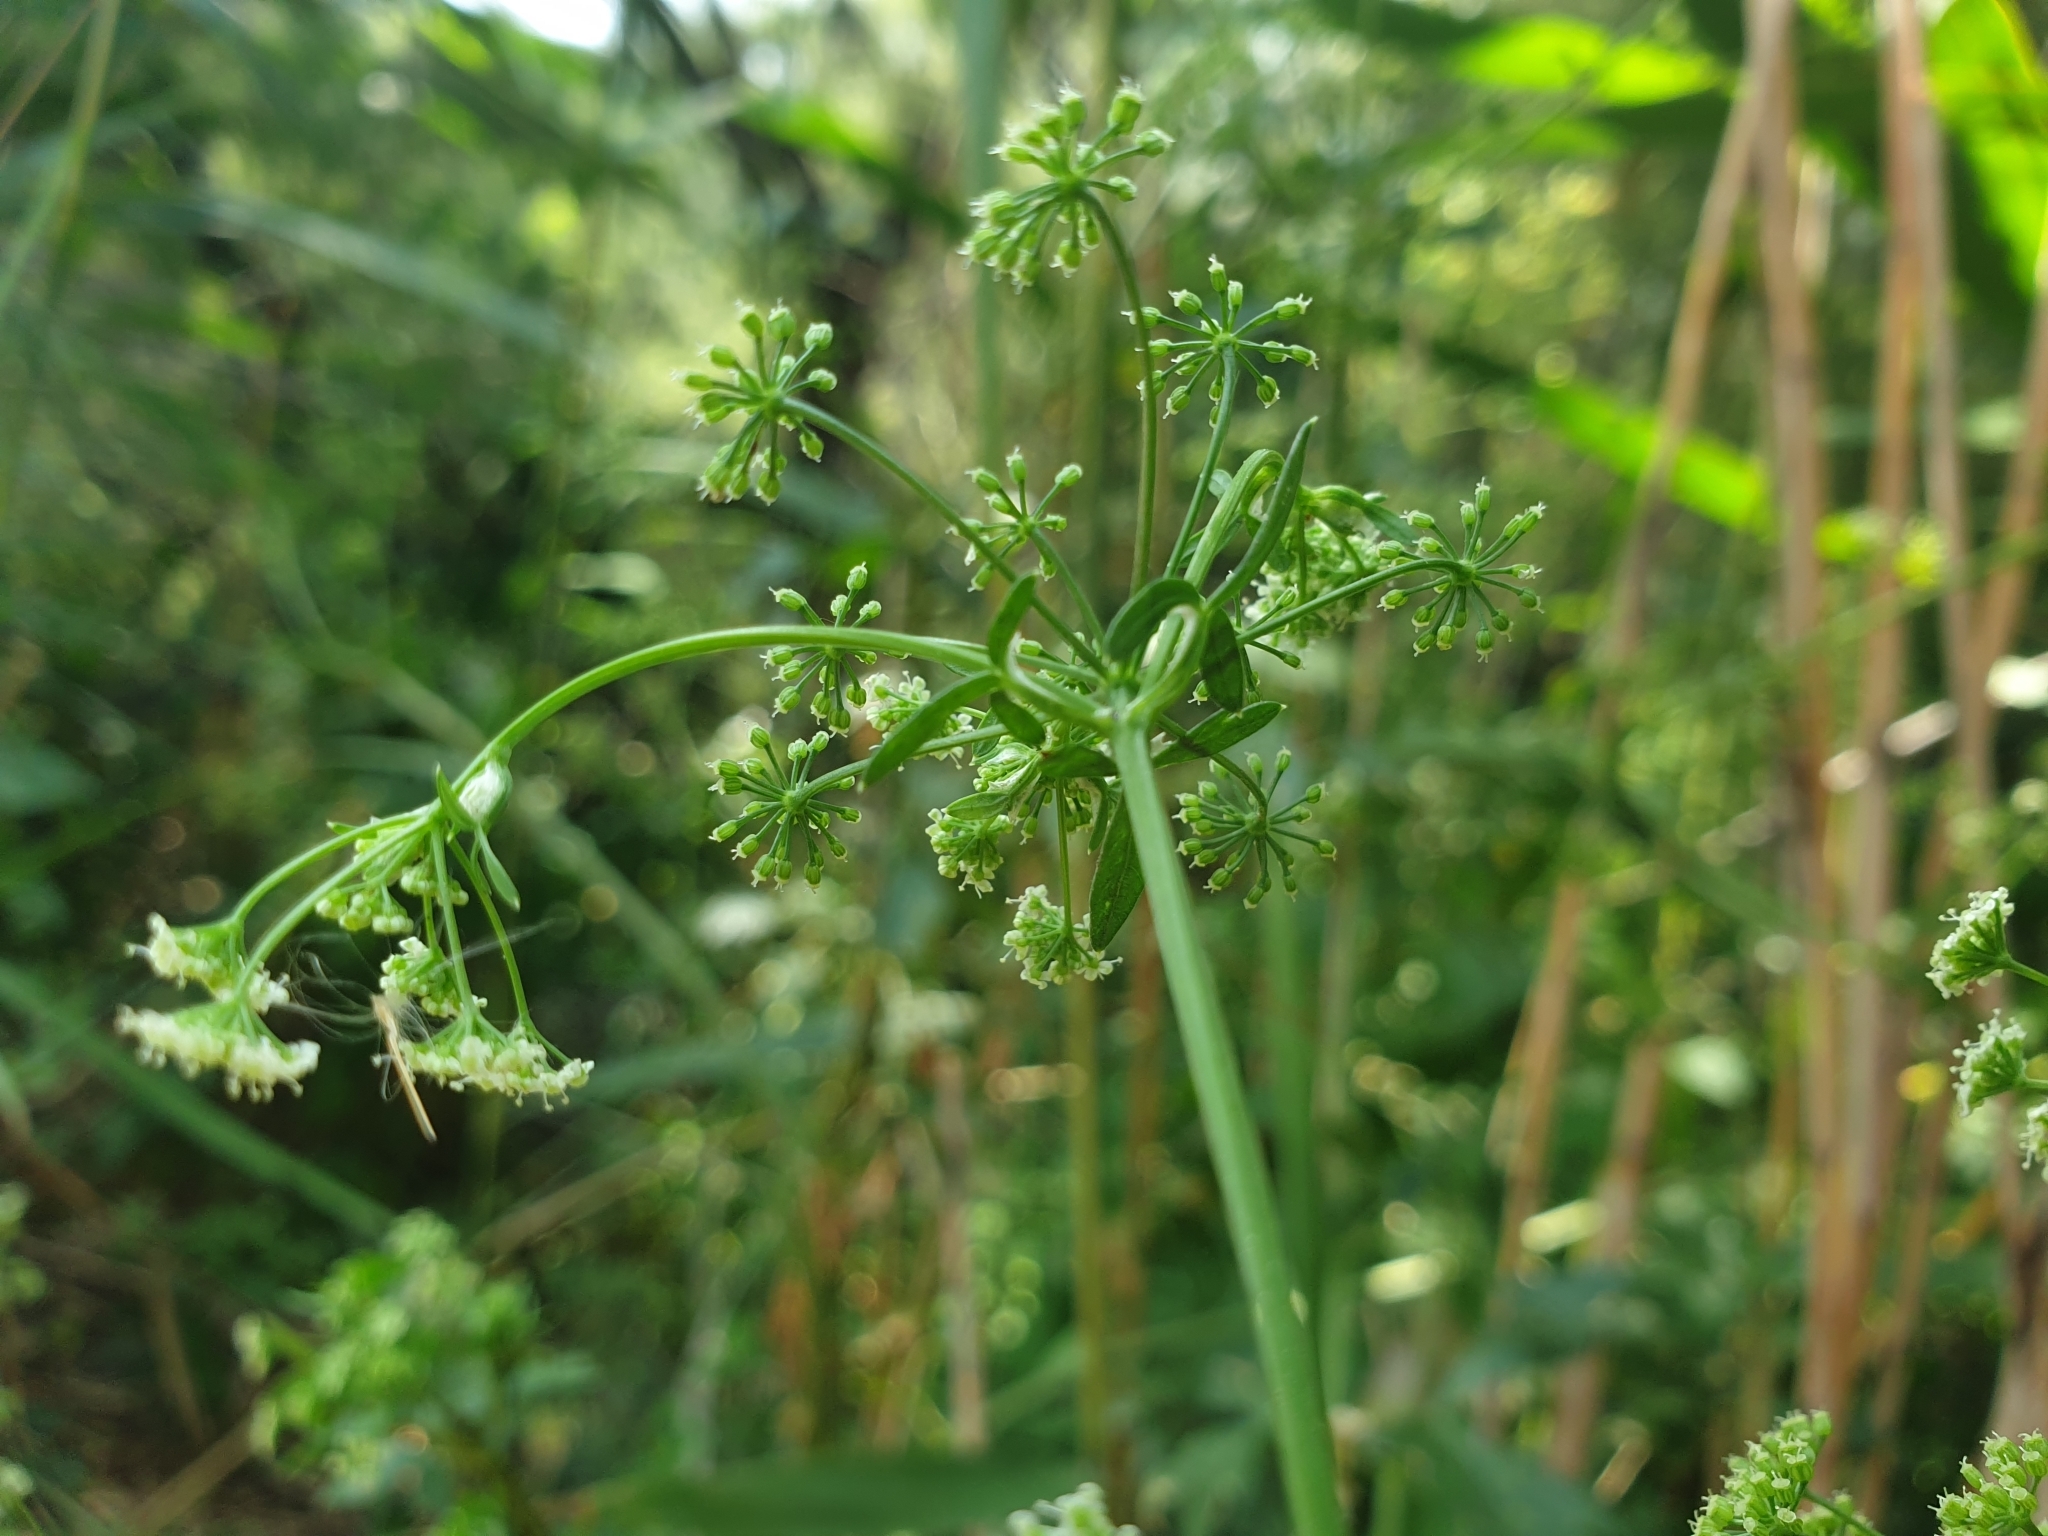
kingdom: Plantae
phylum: Tracheophyta
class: Magnoliopsida
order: Apiales
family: Apiaceae
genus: Apium
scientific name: Apium graveolens
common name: Wild celery
